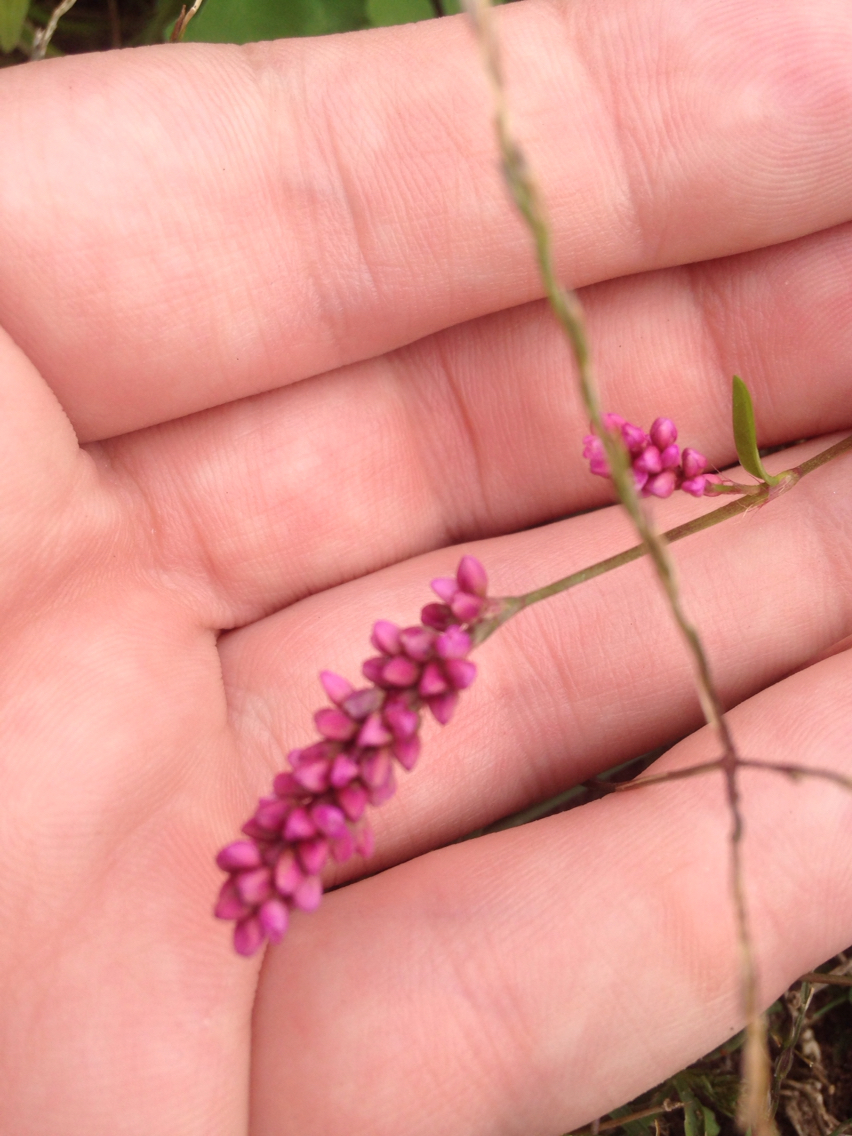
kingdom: Plantae
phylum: Tracheophyta
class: Magnoliopsida
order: Caryophyllales
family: Polygonaceae
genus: Persicaria
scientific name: Persicaria longiseta
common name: Bristly lady's-thumb
